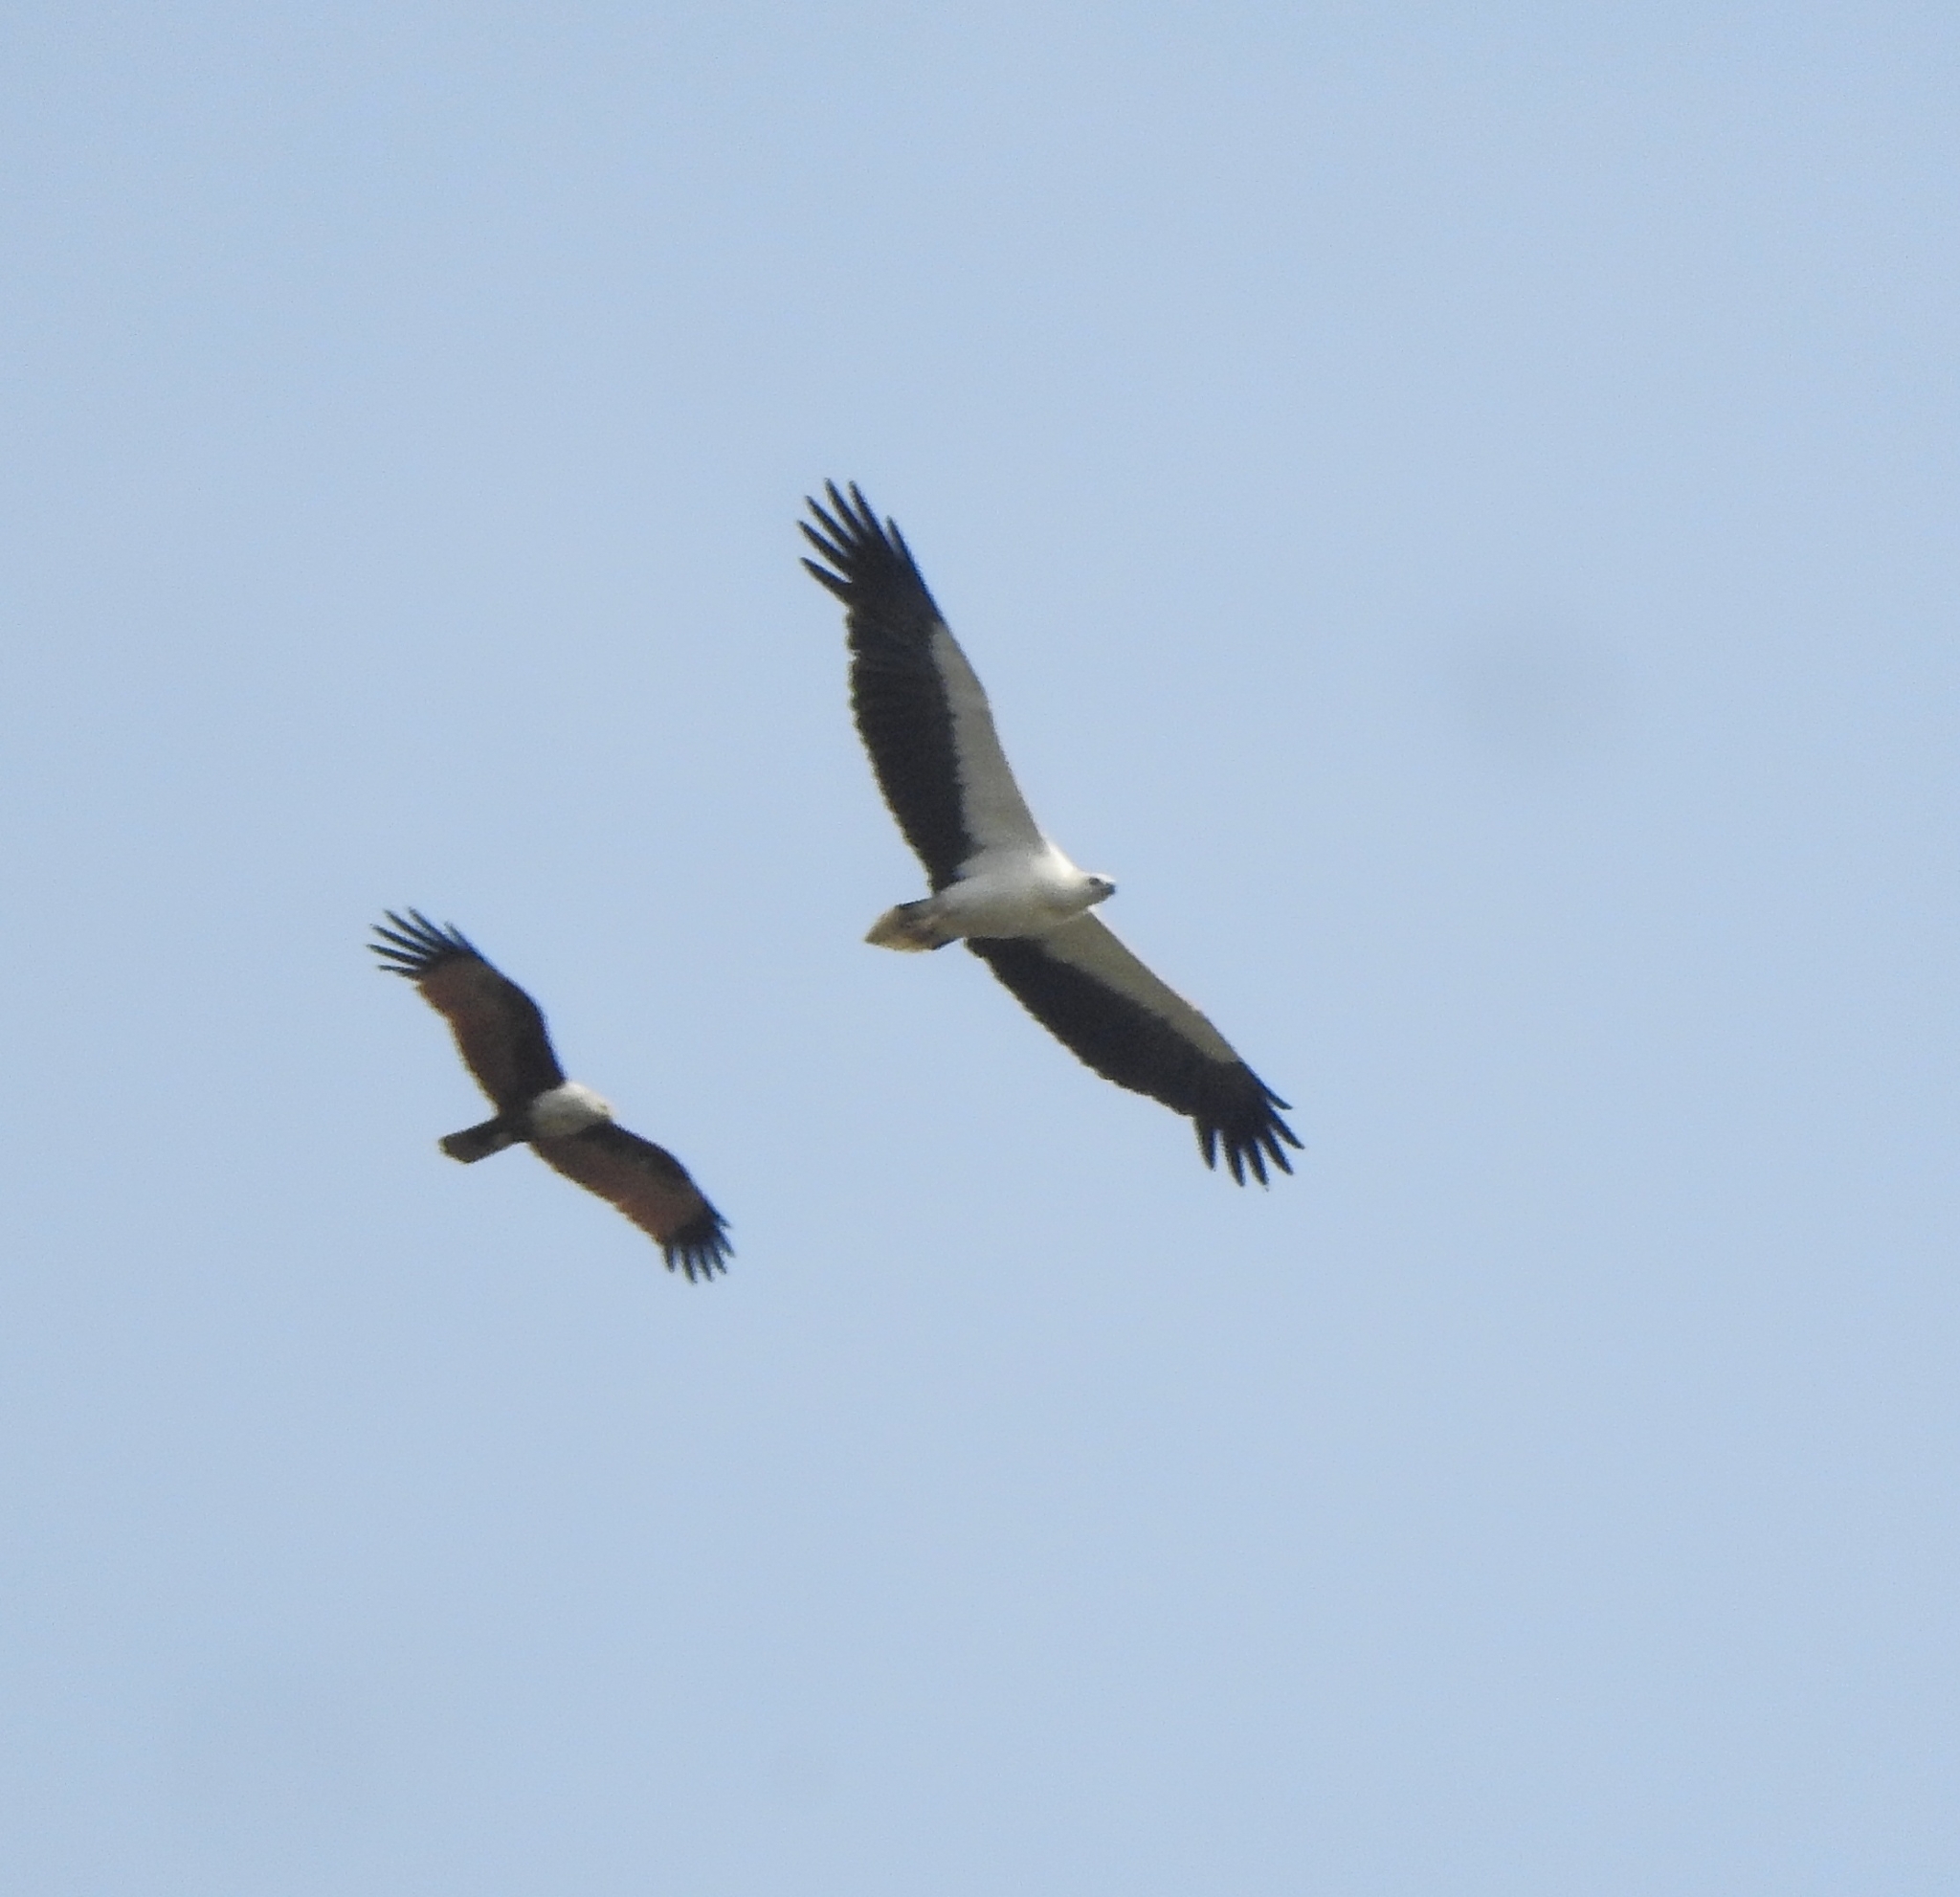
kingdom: Animalia
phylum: Chordata
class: Aves
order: Accipitriformes
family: Accipitridae
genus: Haliaeetus
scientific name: Haliaeetus leucogaster
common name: White-bellied sea eagle
